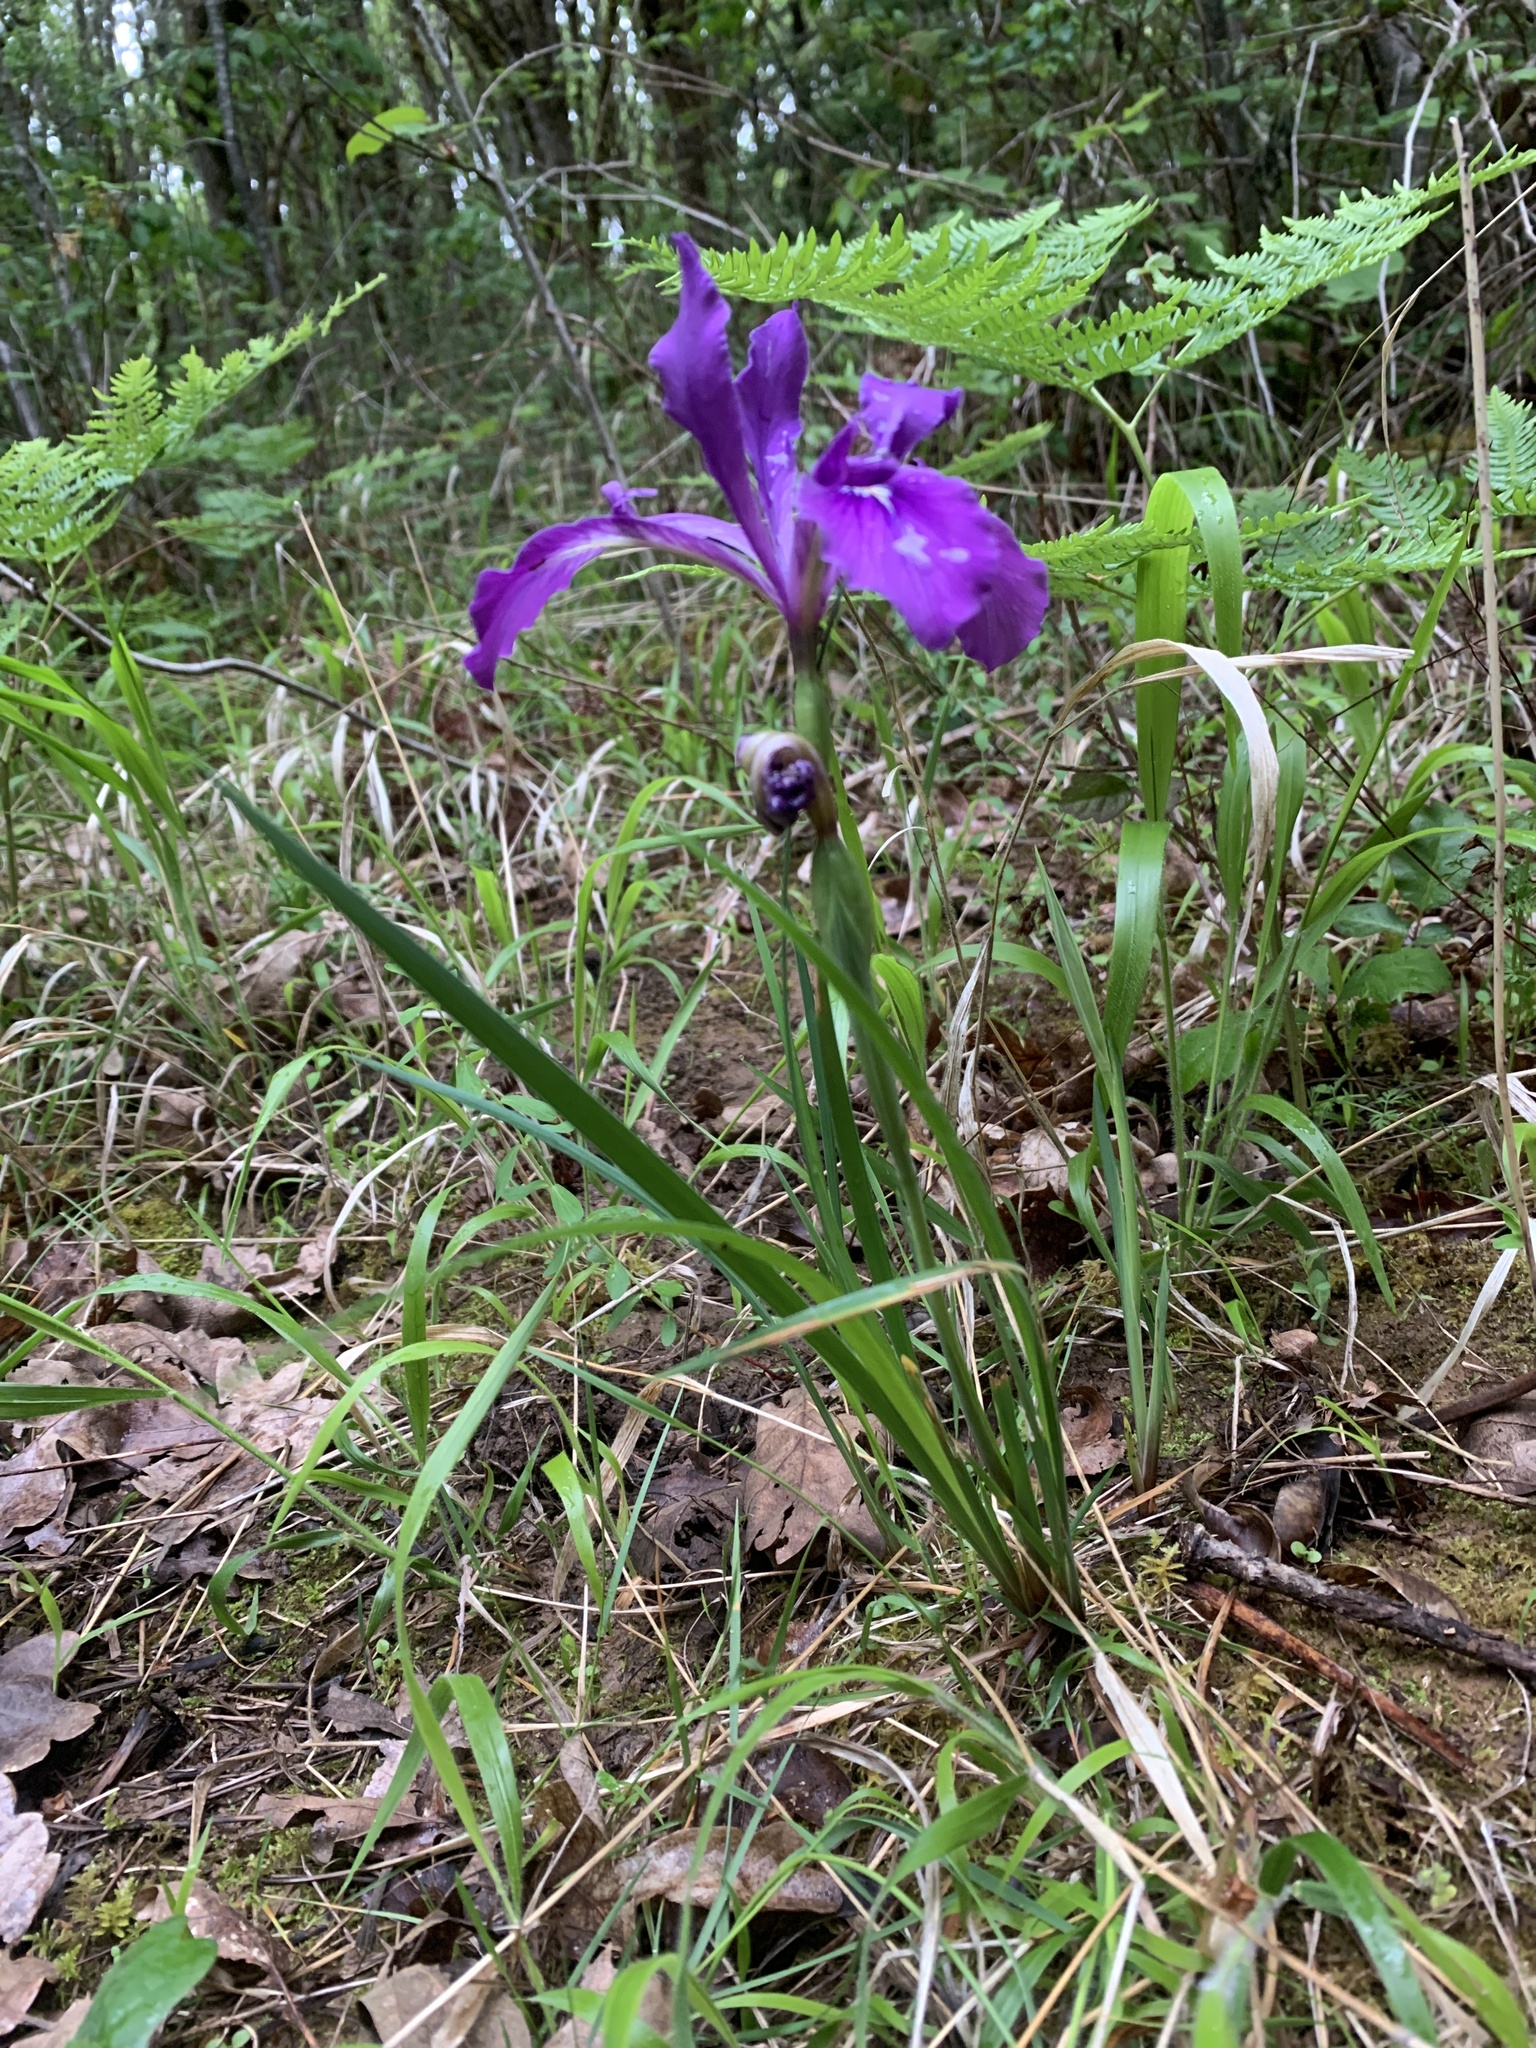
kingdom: Plantae
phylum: Tracheophyta
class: Liliopsida
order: Asparagales
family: Iridaceae
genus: Iris
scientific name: Iris tenax
